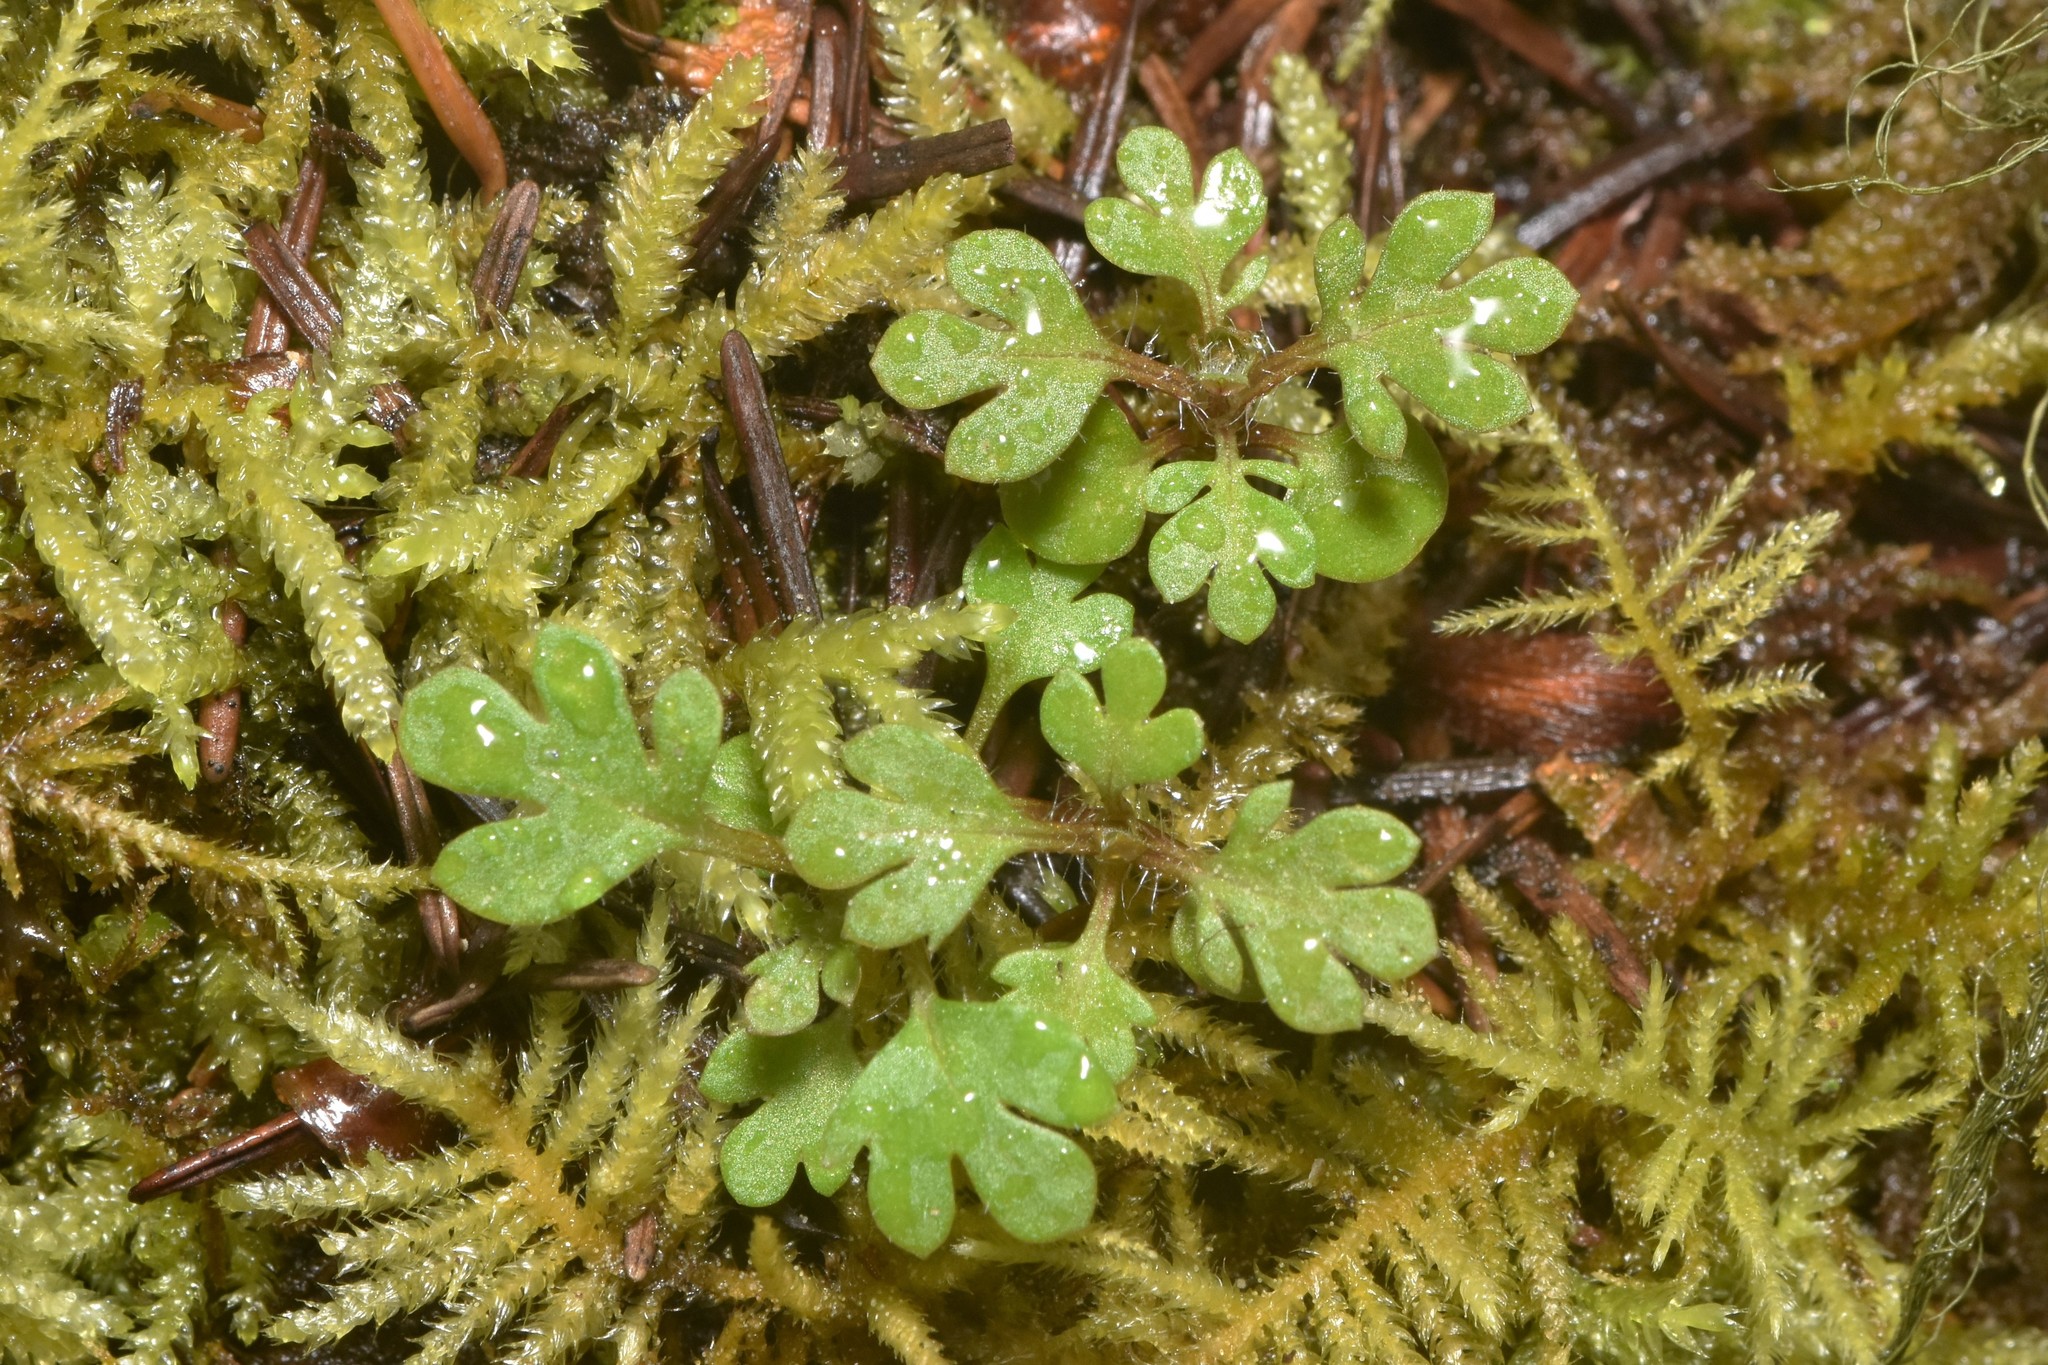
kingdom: Plantae
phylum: Tracheophyta
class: Magnoliopsida
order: Ericales
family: Polemoniaceae
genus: Collomia
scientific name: Collomia heterophylla
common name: Variable-leaved collomia
